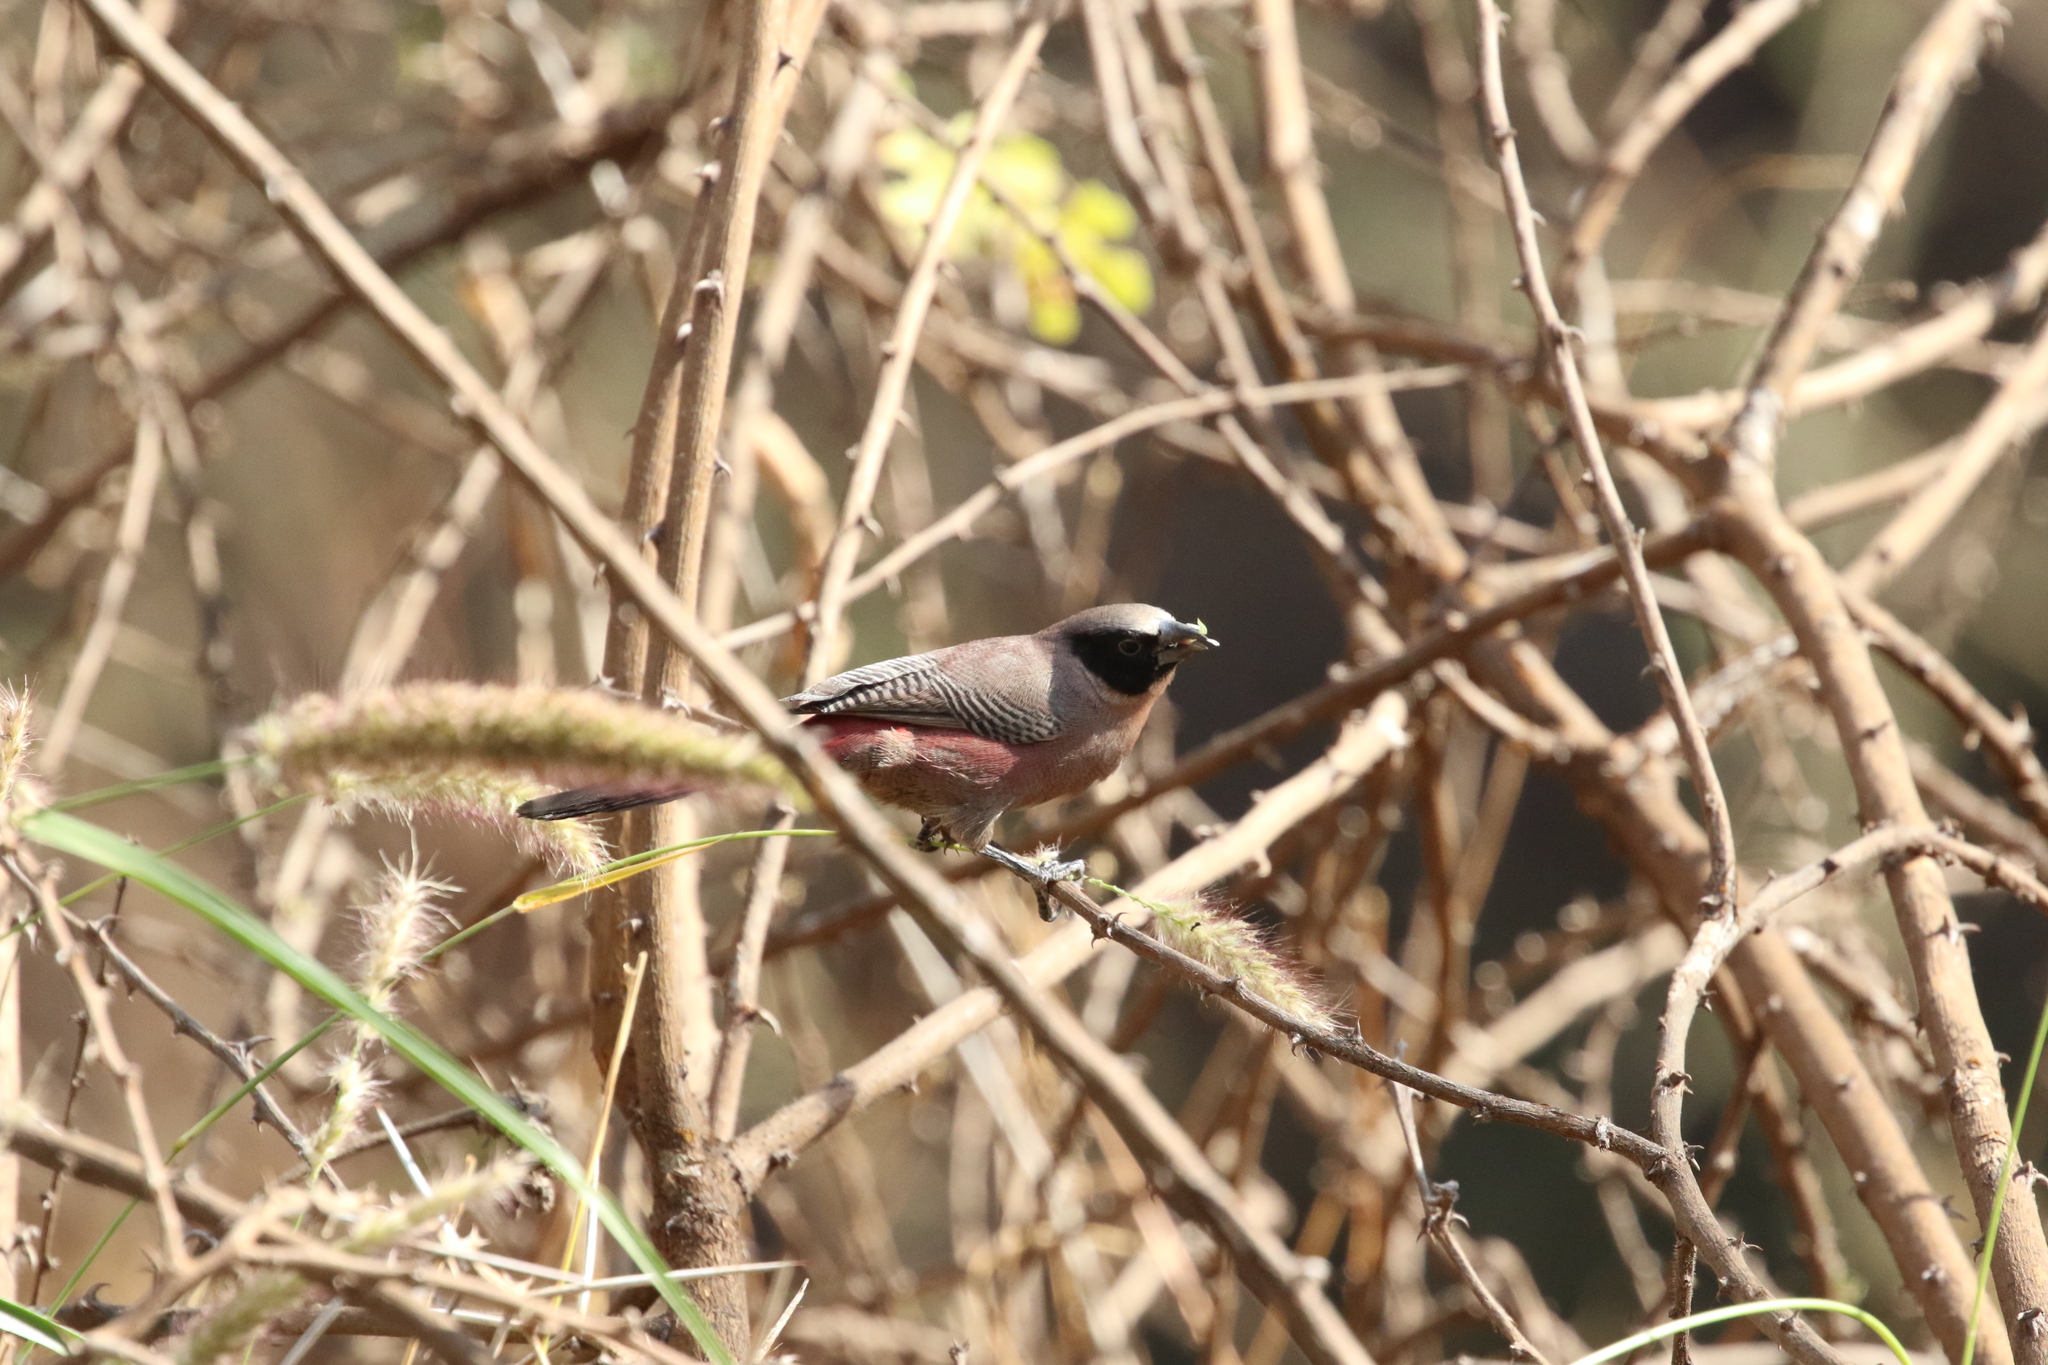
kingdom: Animalia
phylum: Chordata
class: Aves
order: Passeriformes
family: Estrildidae
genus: Estrilda
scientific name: Estrilda erythronotos
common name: Black-faced waxbill
